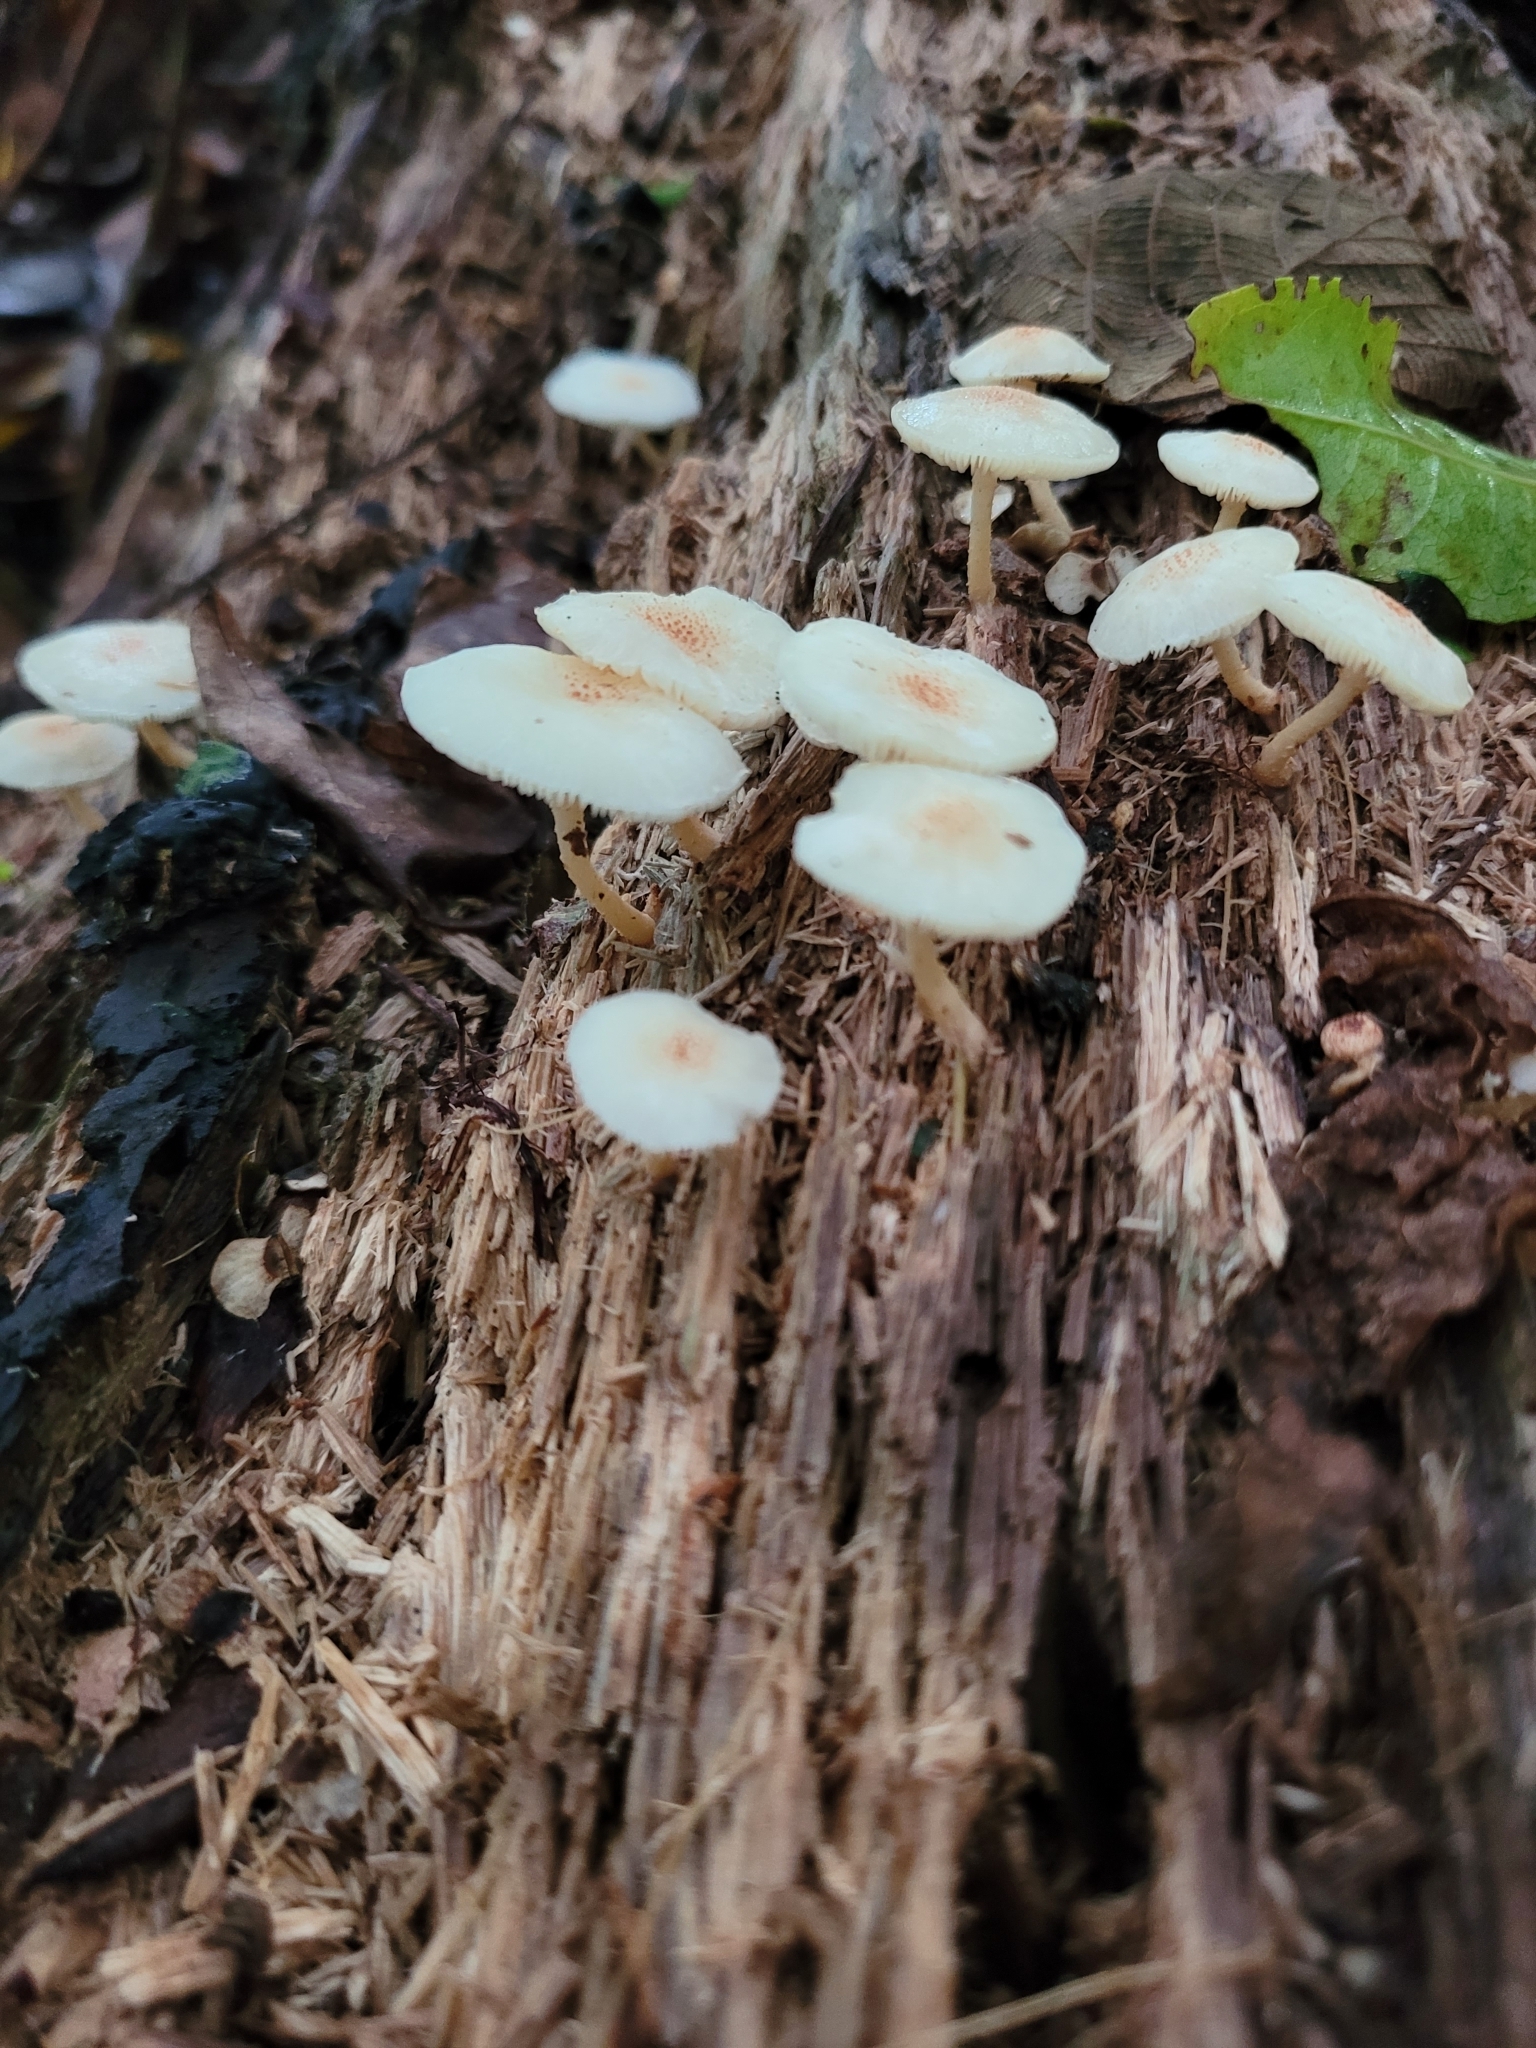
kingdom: Fungi
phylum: Basidiomycota
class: Agaricomycetes
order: Agaricales
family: Agaricaceae
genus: Ripartitella
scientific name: Ripartitella brasiliensis
